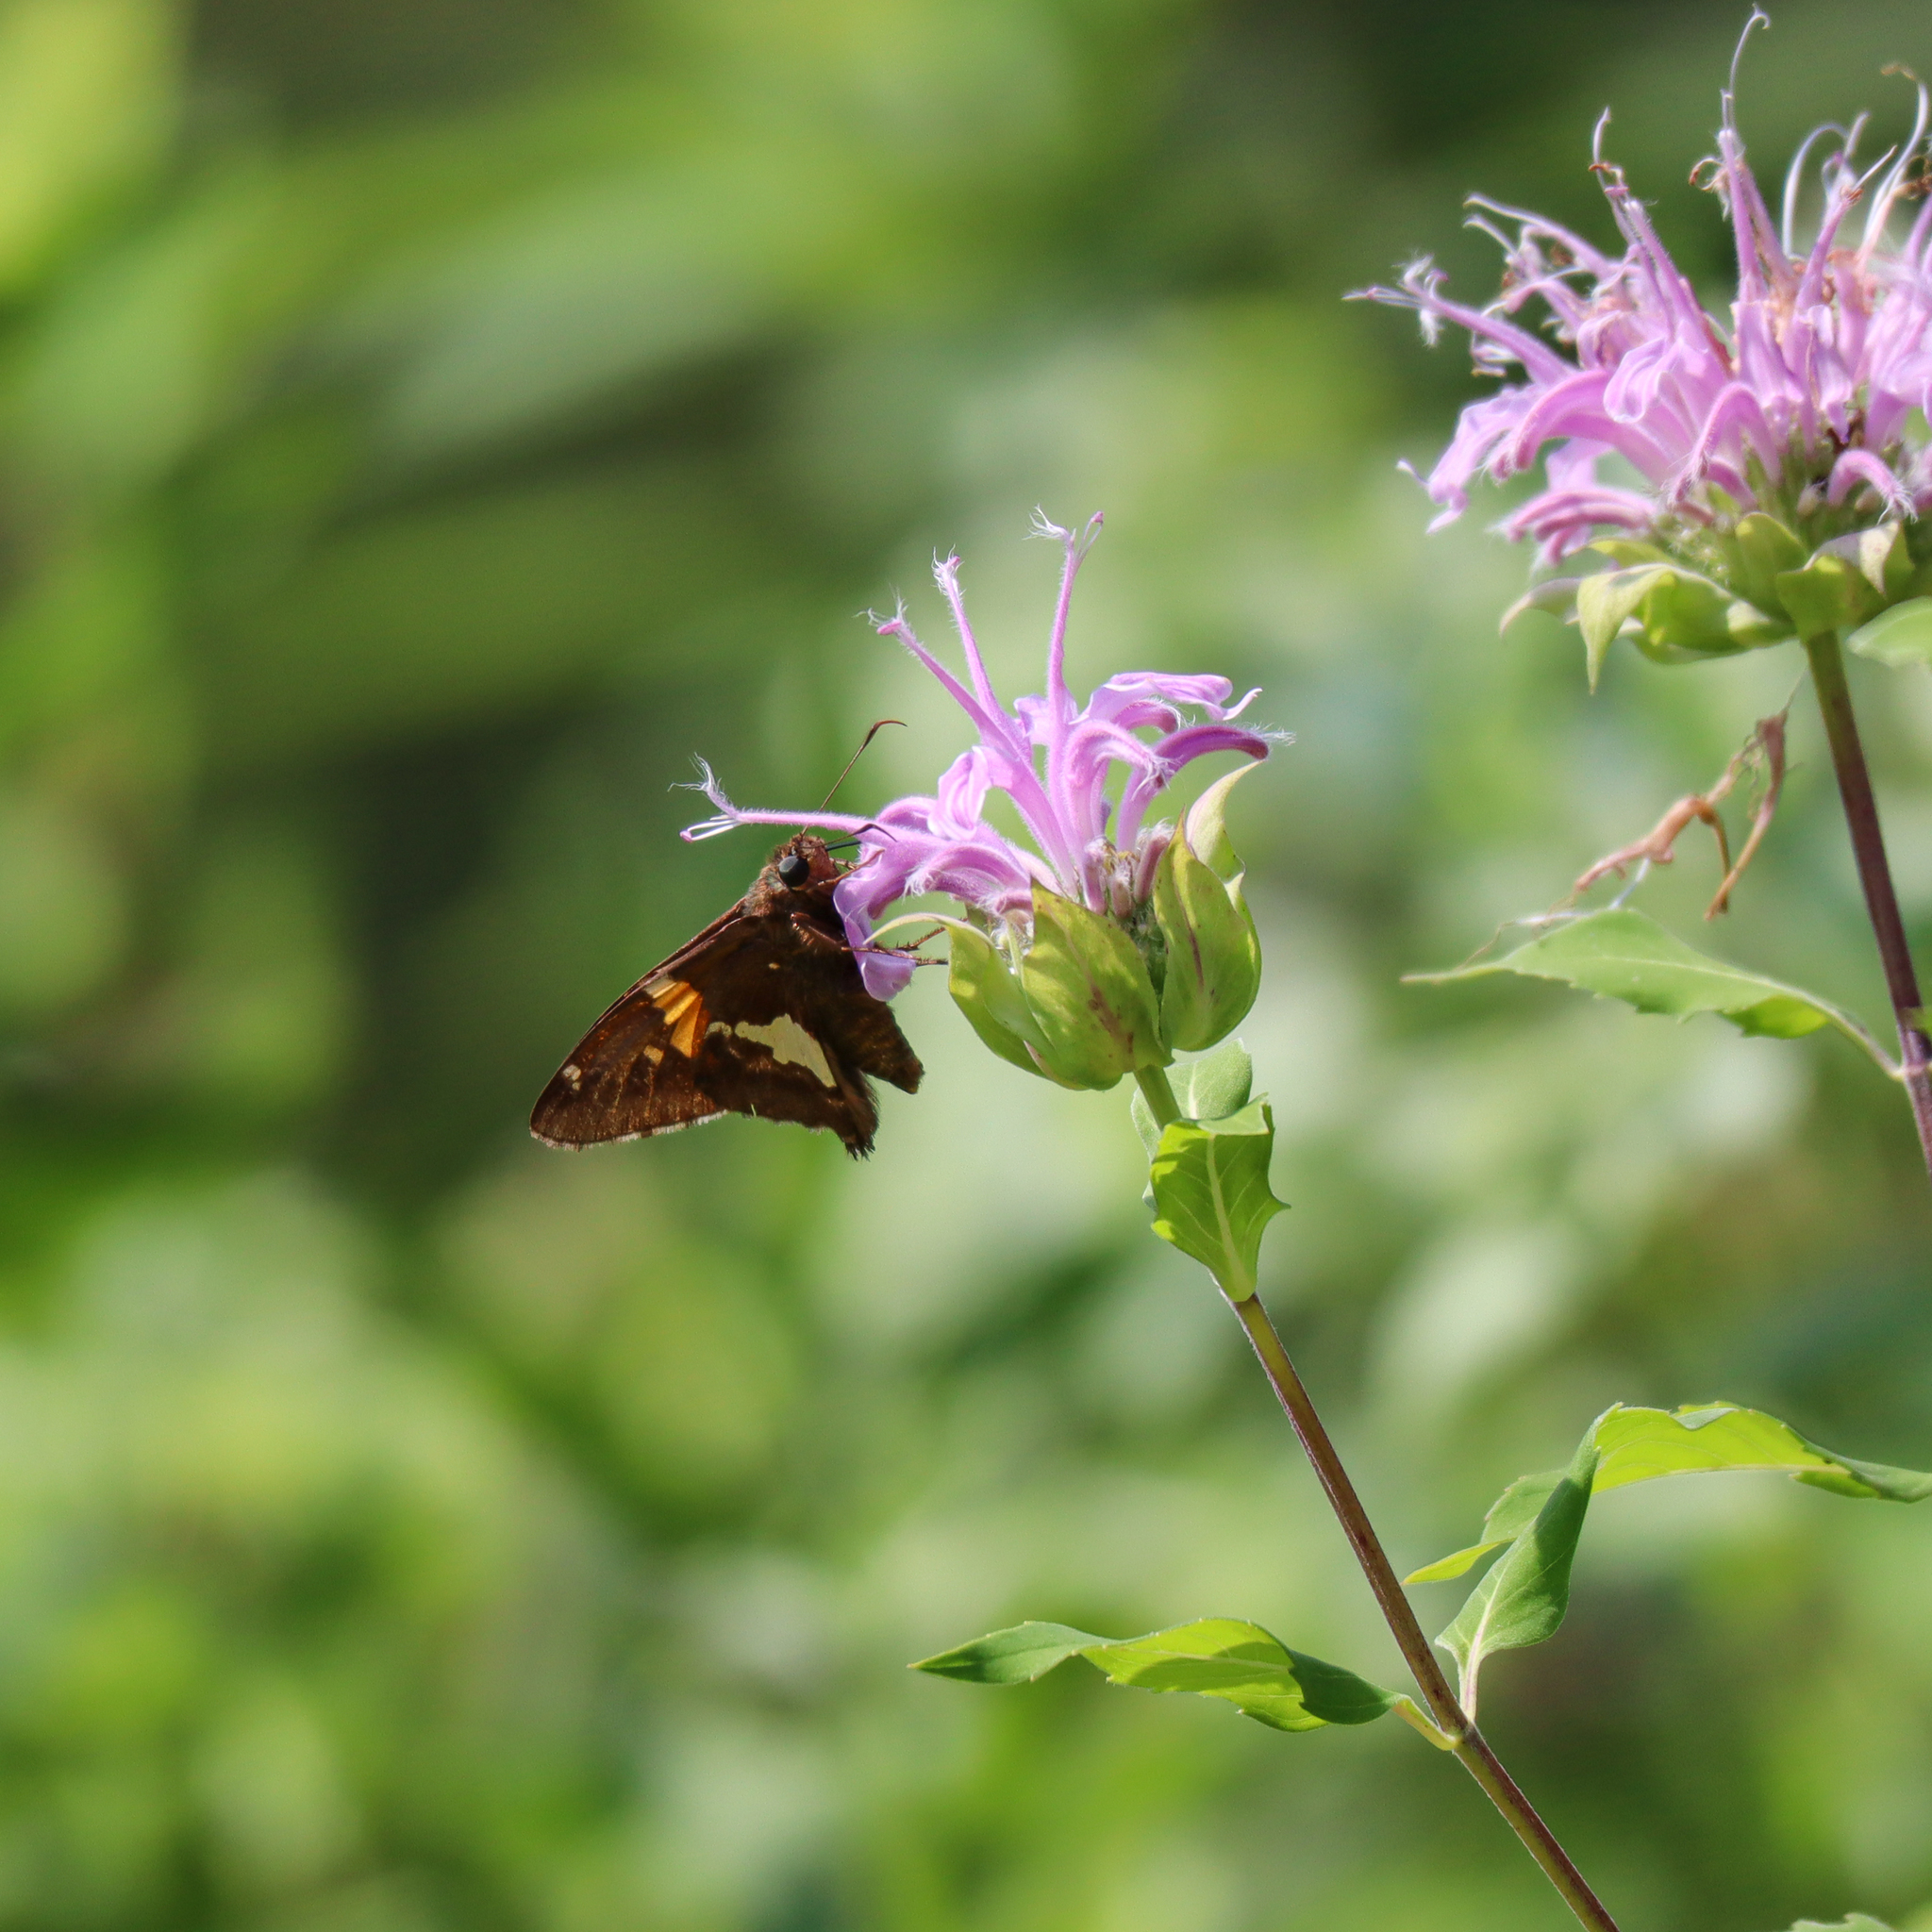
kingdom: Animalia
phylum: Arthropoda
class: Insecta
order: Lepidoptera
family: Hesperiidae
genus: Epargyreus
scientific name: Epargyreus clarus
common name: Silver-spotted skipper
